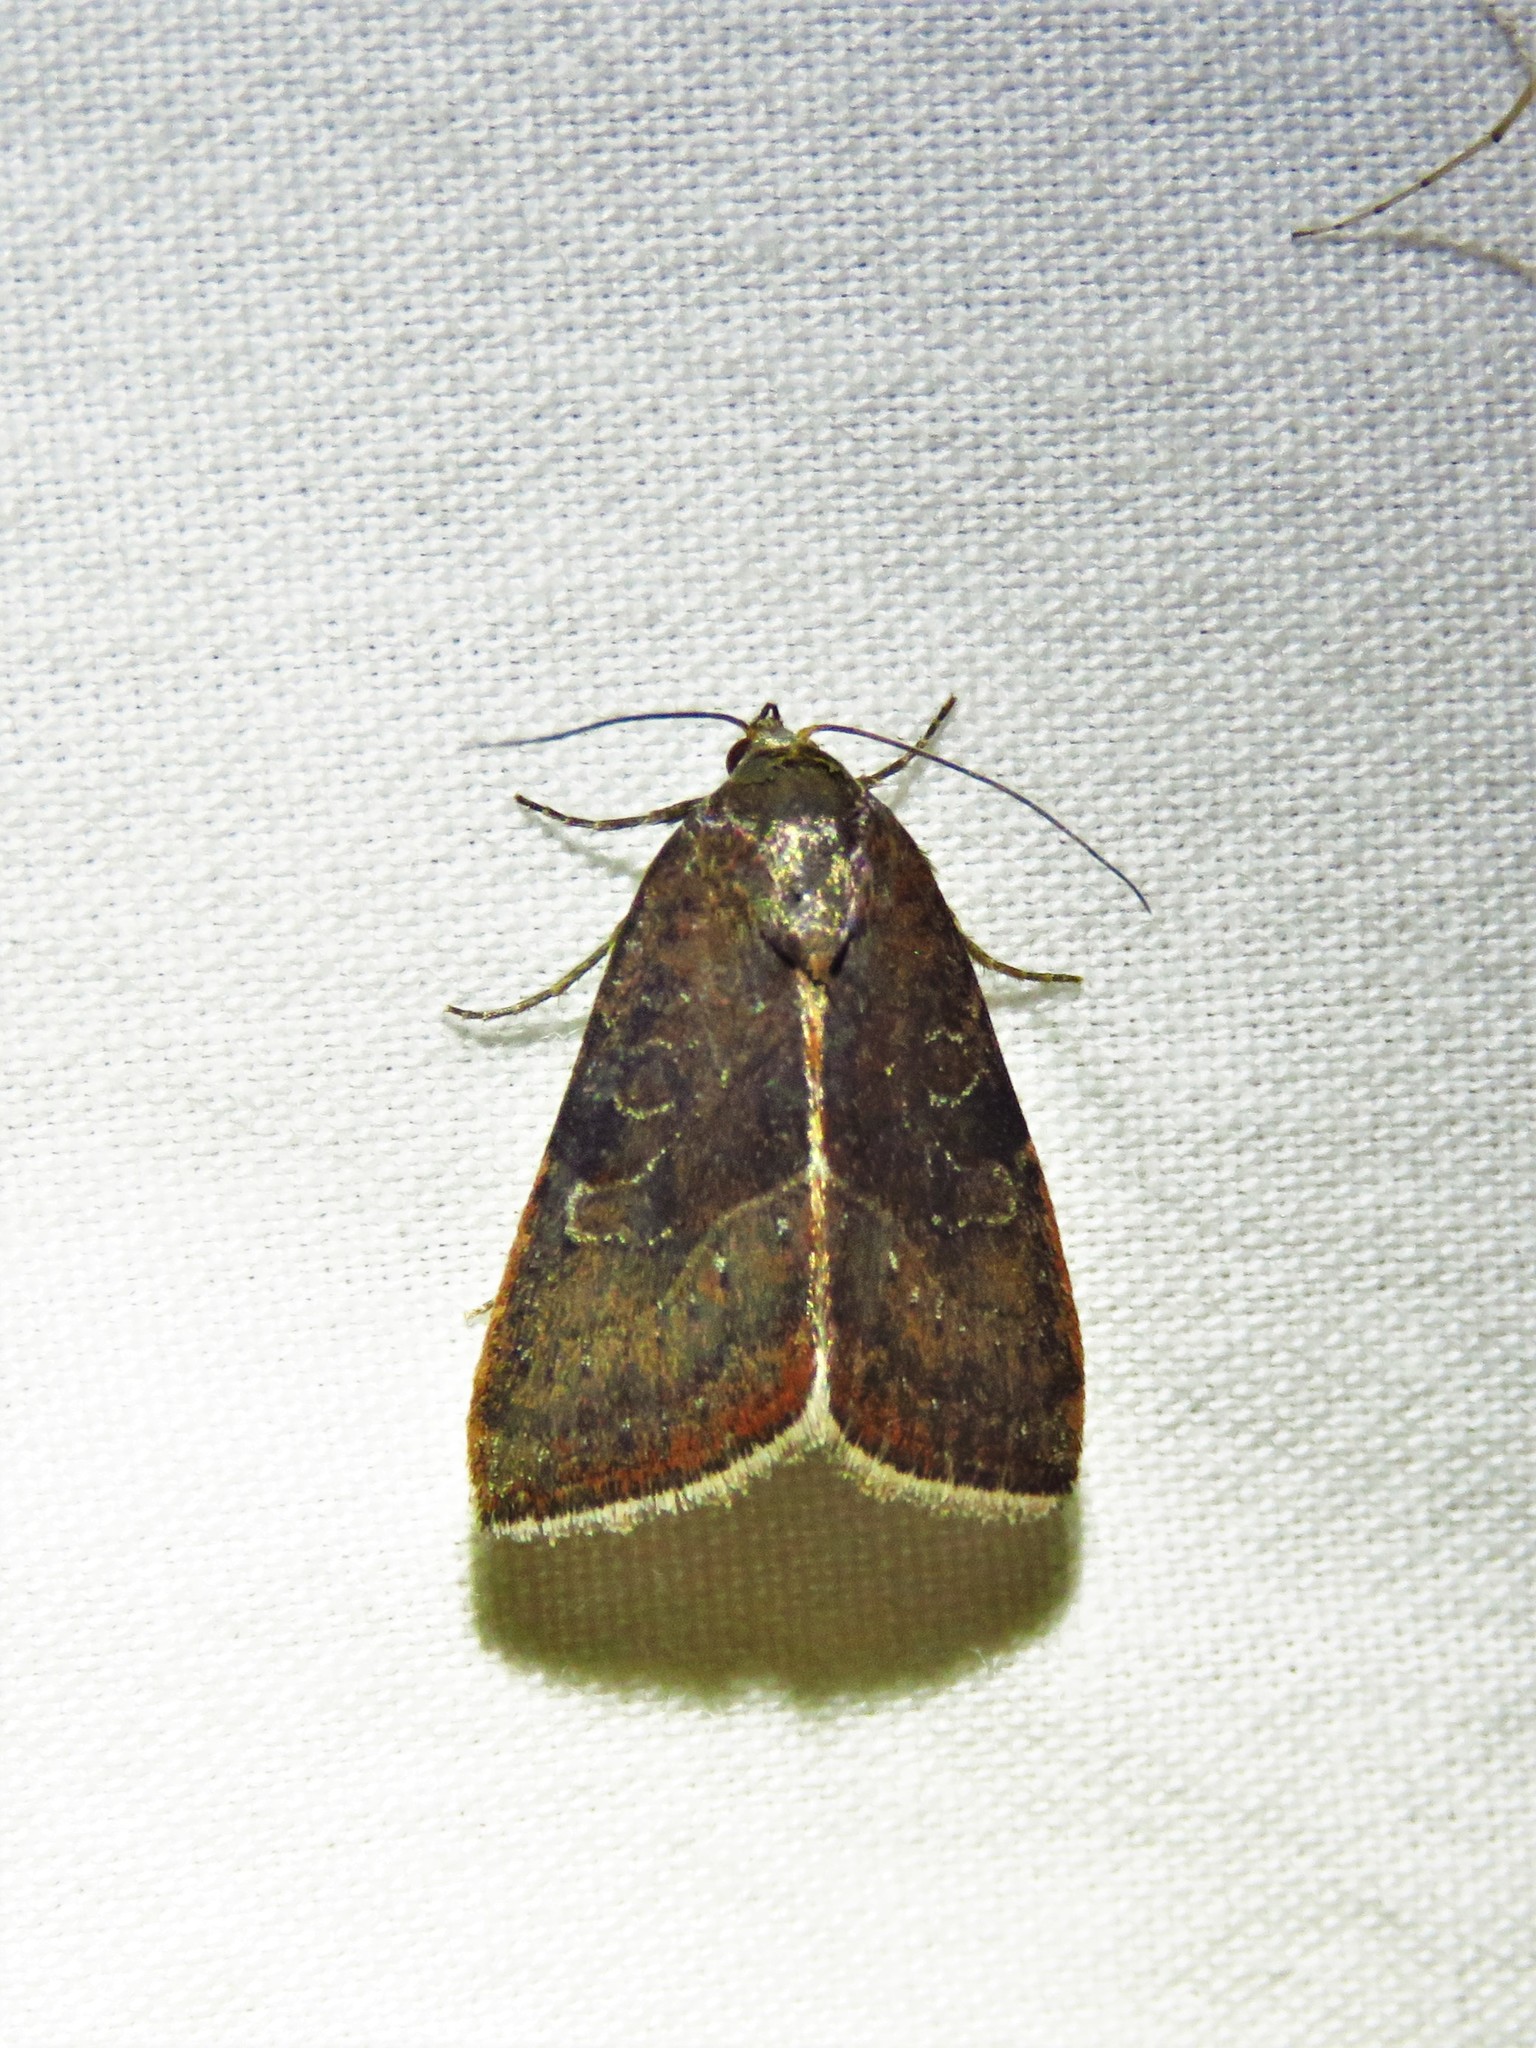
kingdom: Animalia
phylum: Arthropoda
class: Insecta
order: Lepidoptera
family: Noctuidae
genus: Galgula
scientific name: Galgula partita
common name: Wedgeling
